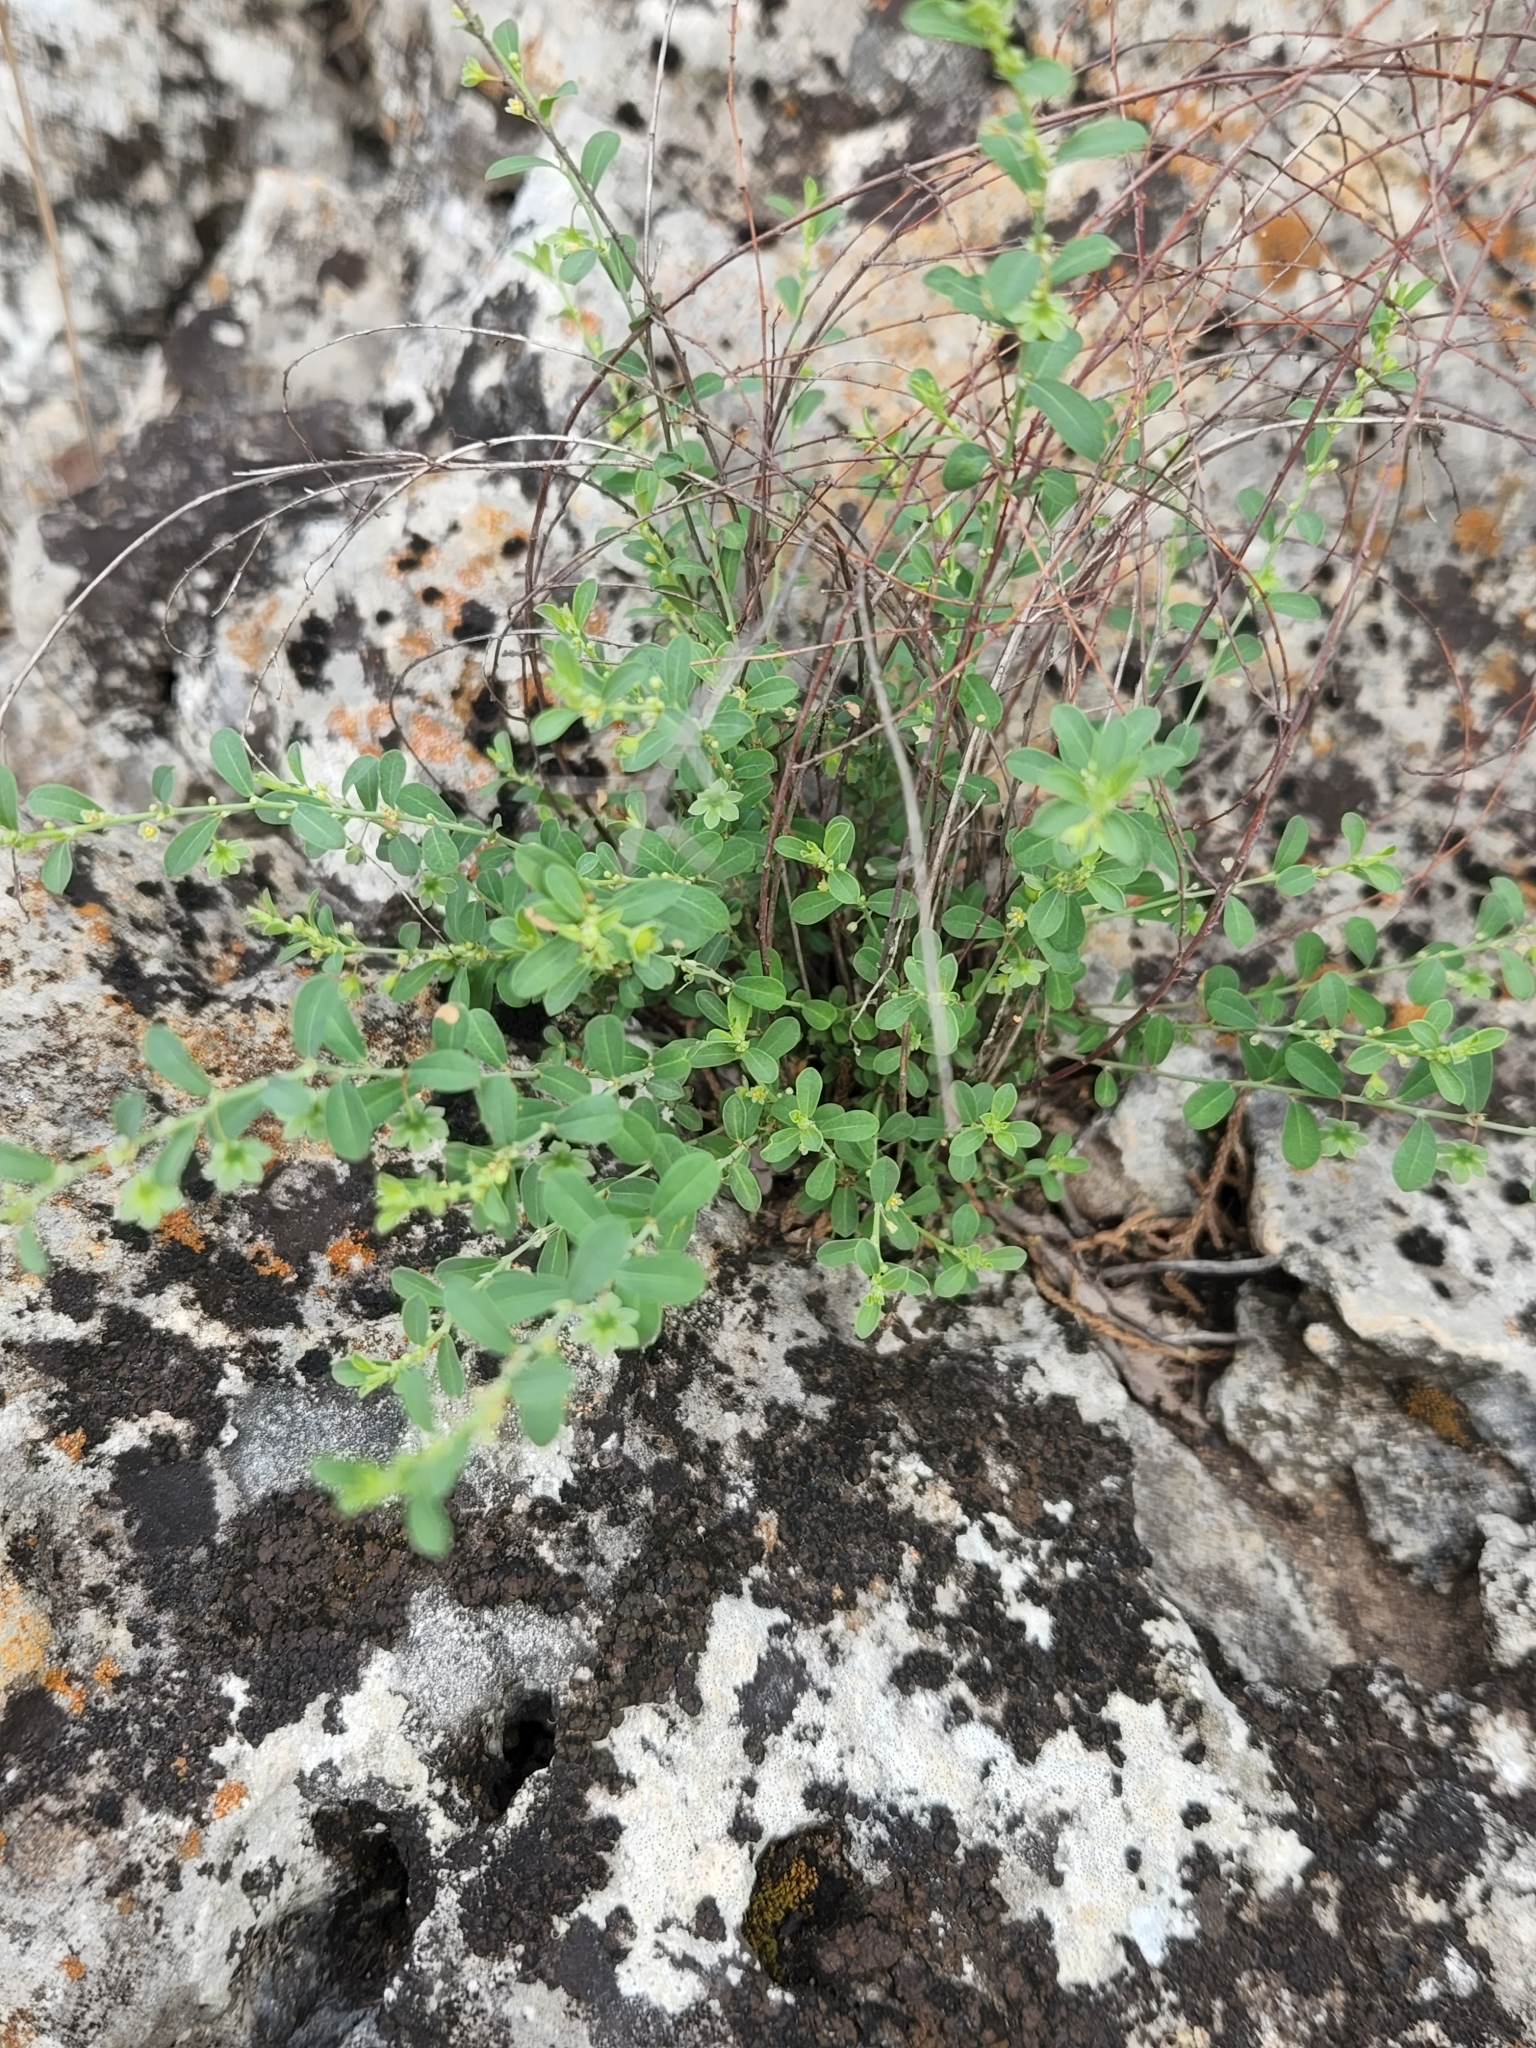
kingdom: Plantae
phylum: Tracheophyta
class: Magnoliopsida
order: Malpighiales
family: Phyllanthaceae
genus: Phyllanthus
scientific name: Phyllanthus polygonoides
